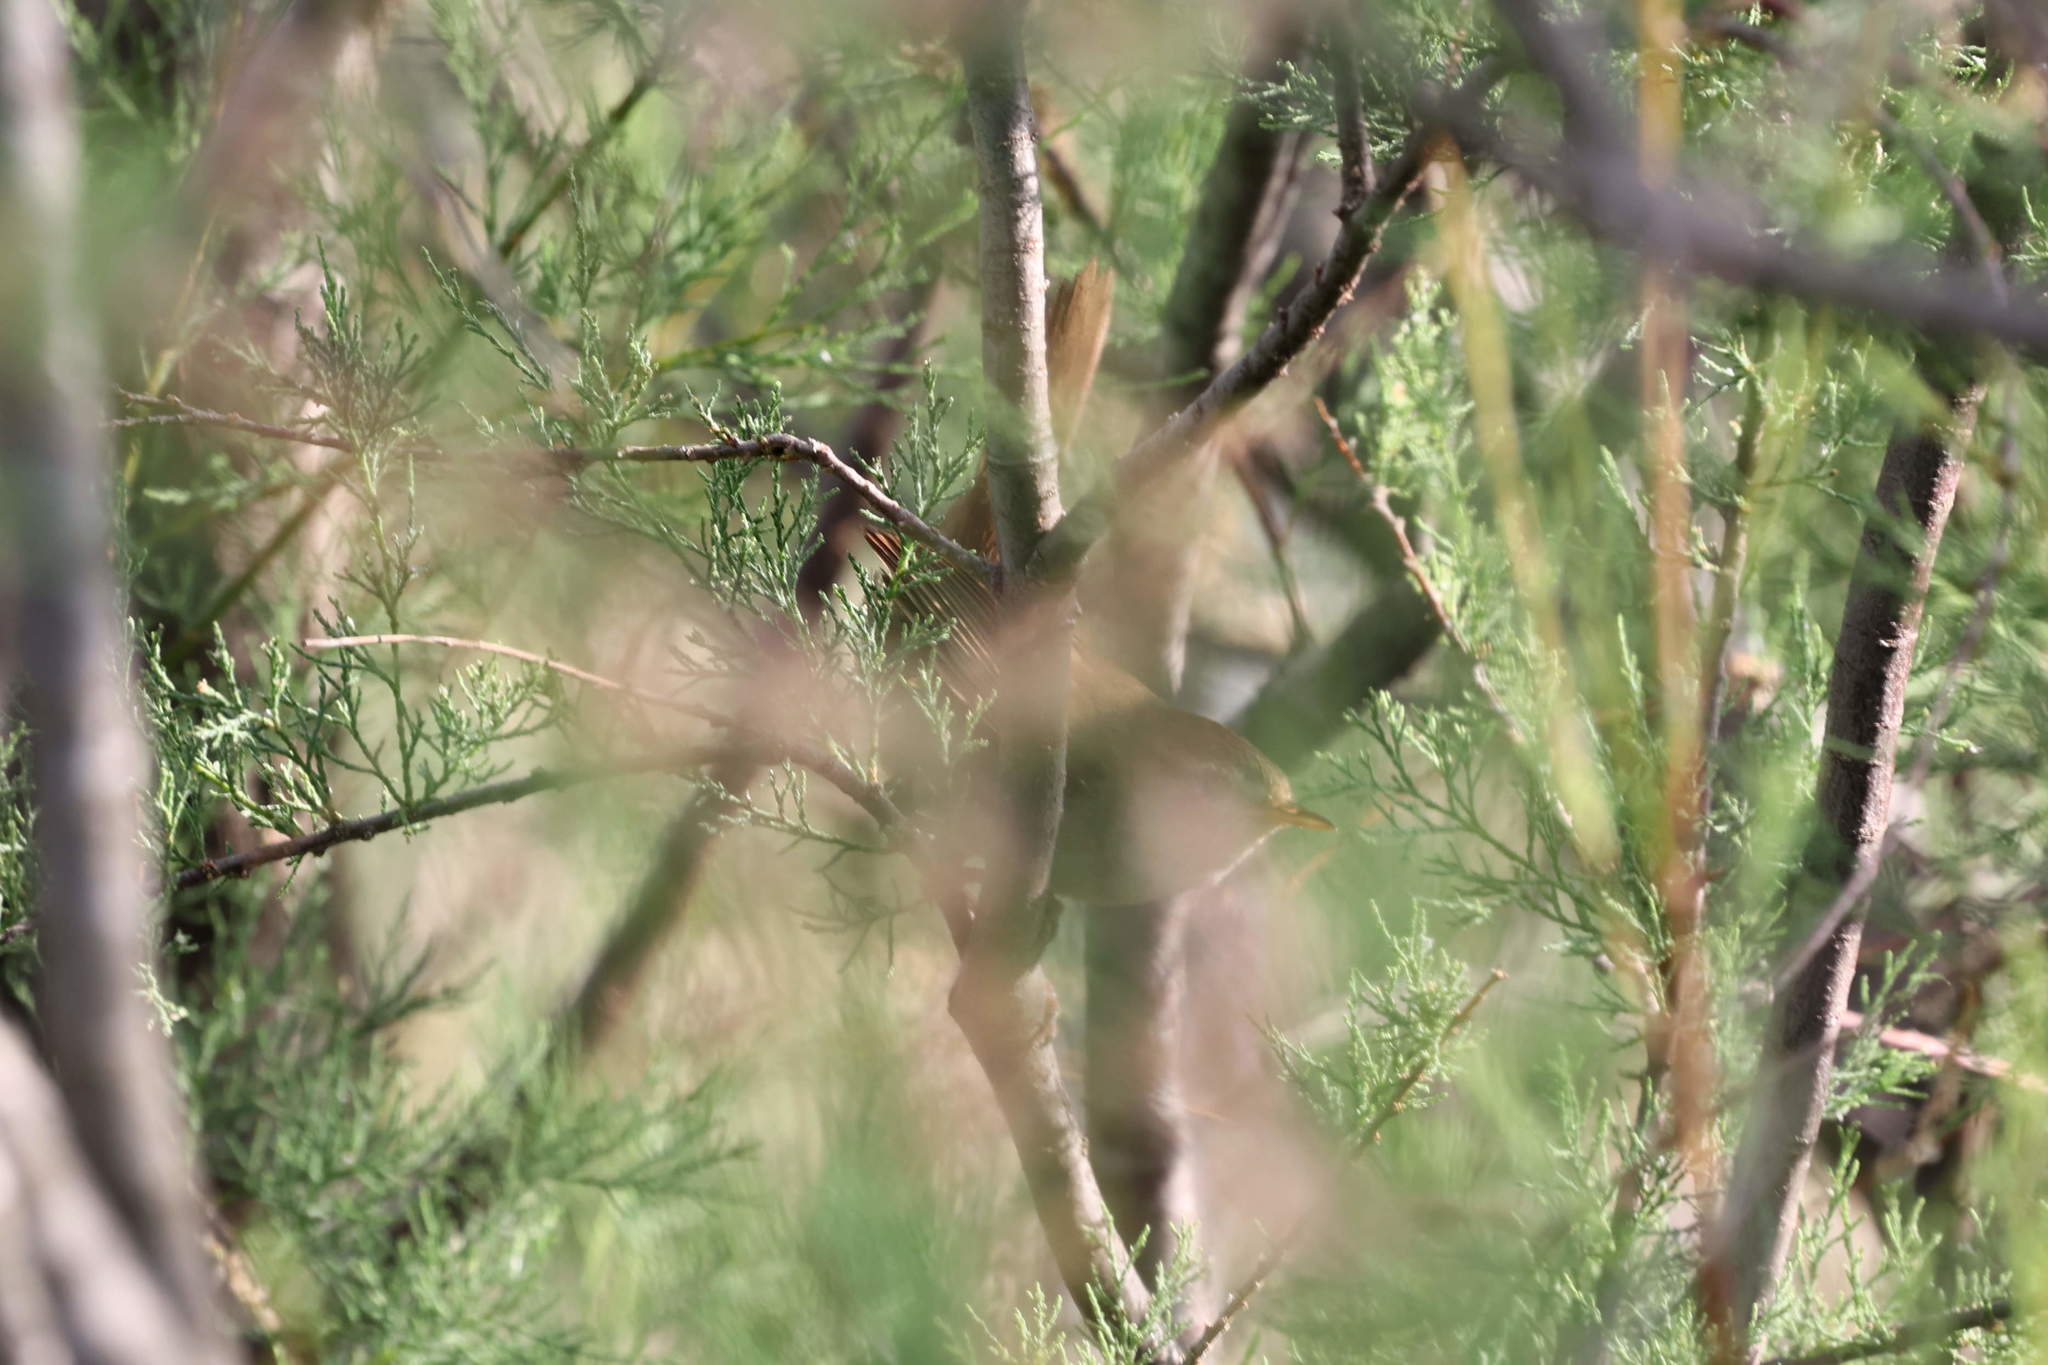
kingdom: Animalia
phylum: Chordata
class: Aves
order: Passeriformes
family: Cettiidae
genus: Cettia
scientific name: Cettia cetti
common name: Cetti's warbler
